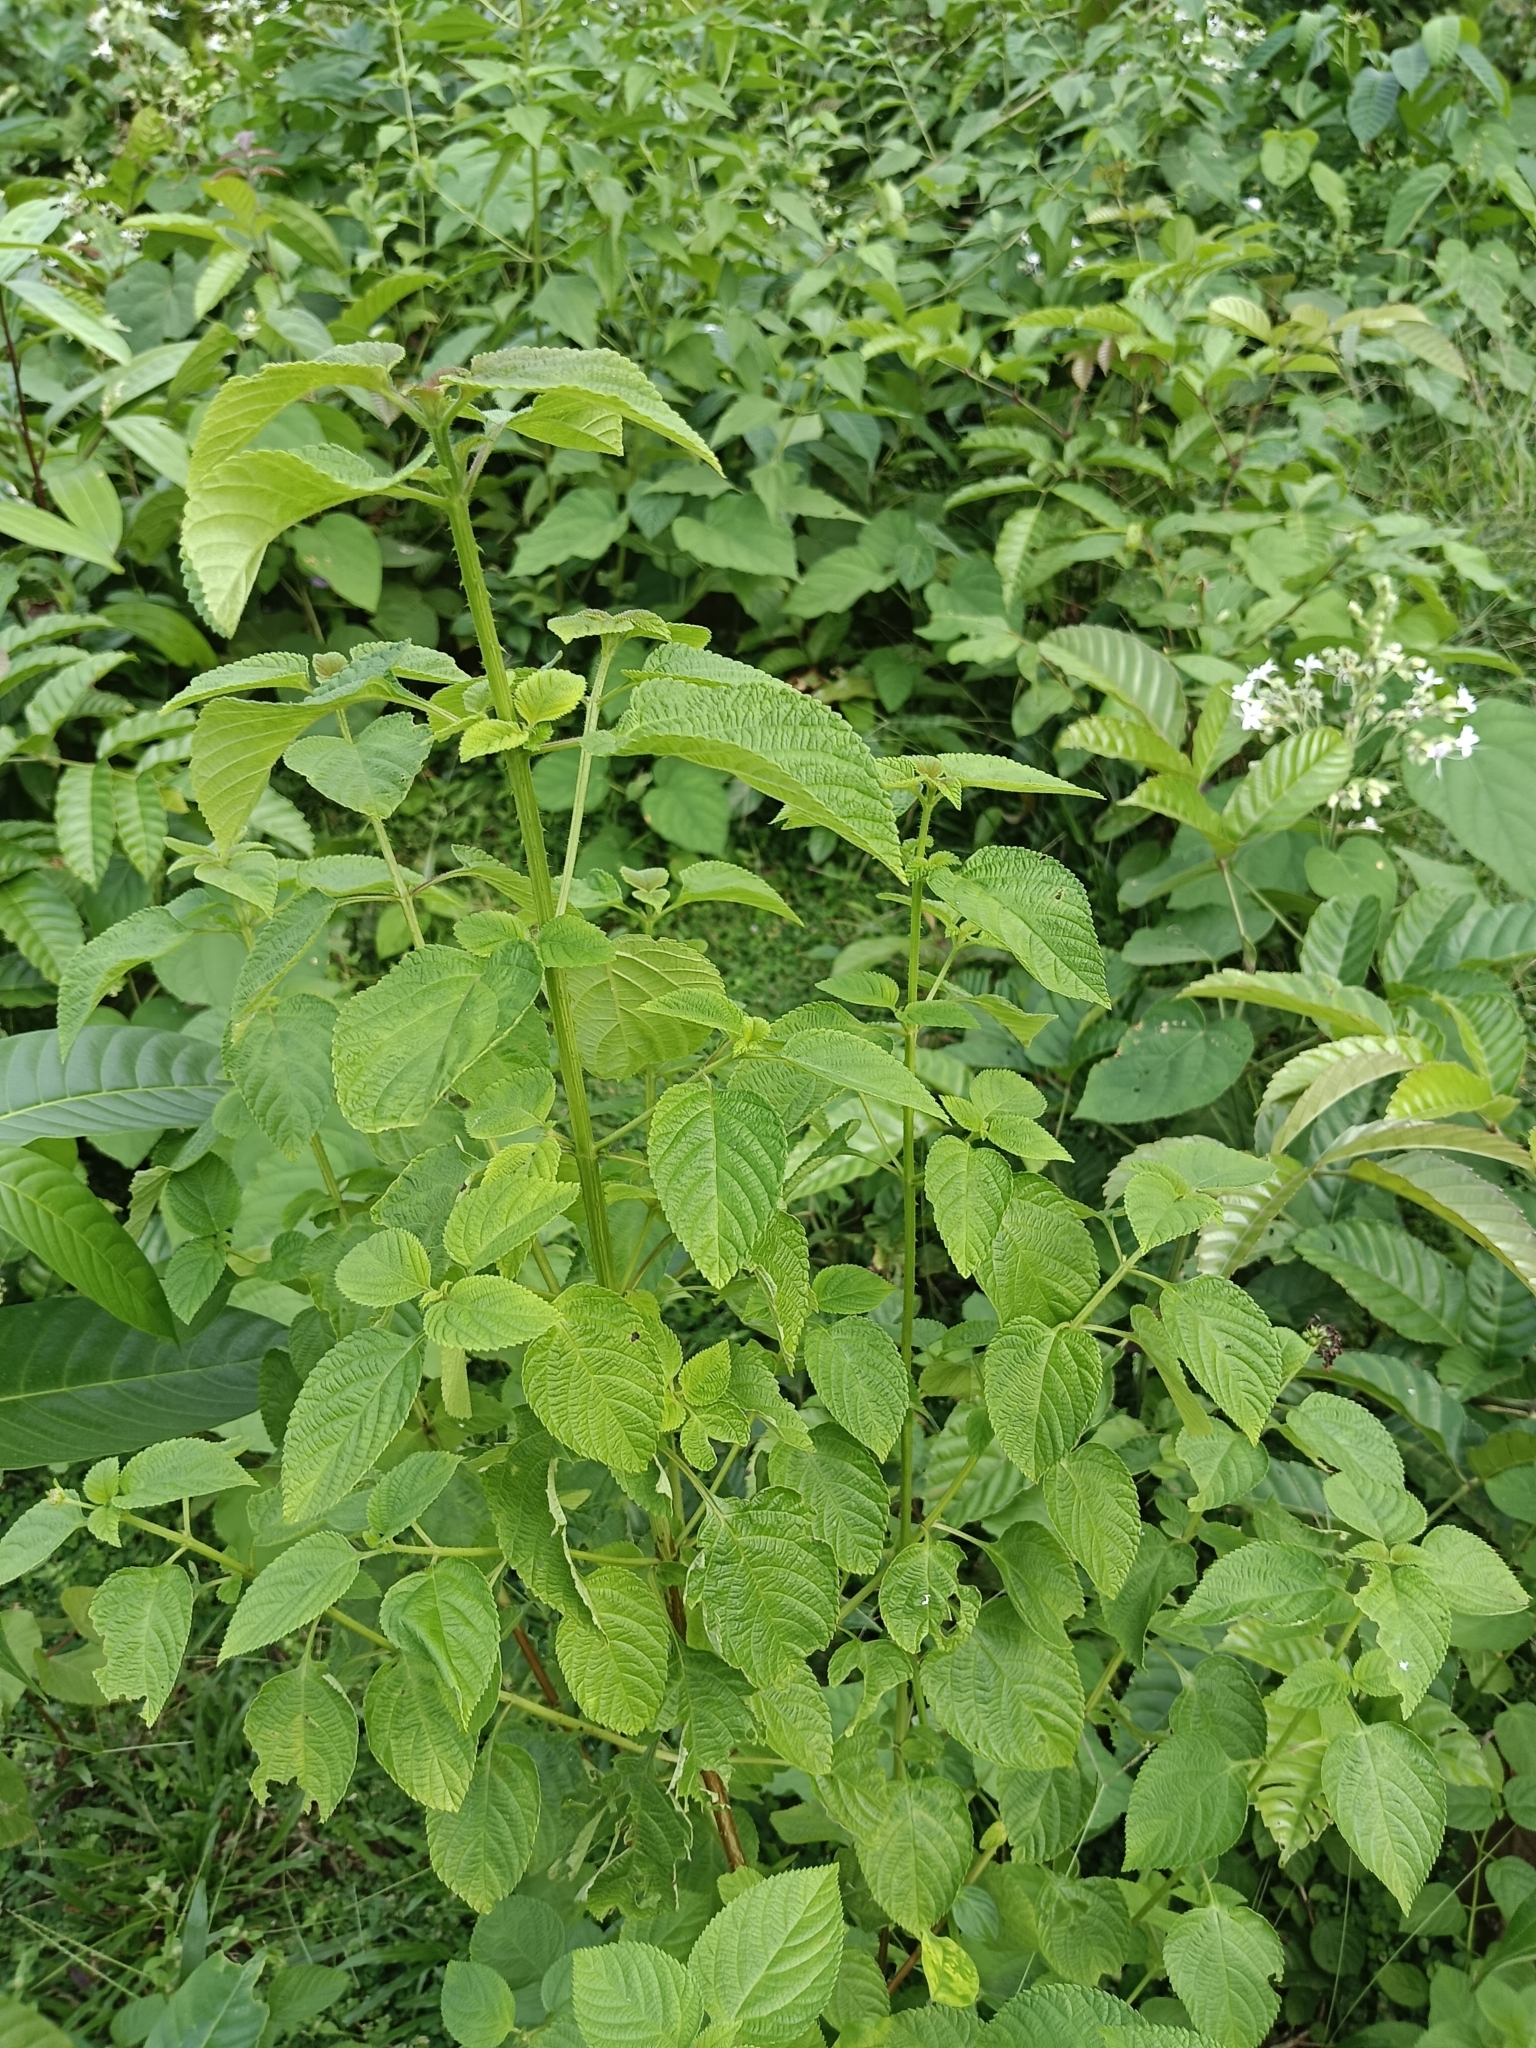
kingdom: Plantae
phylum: Tracheophyta
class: Magnoliopsida
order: Lamiales
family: Verbenaceae
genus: Lantana
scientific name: Lantana camara
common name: Lantana
